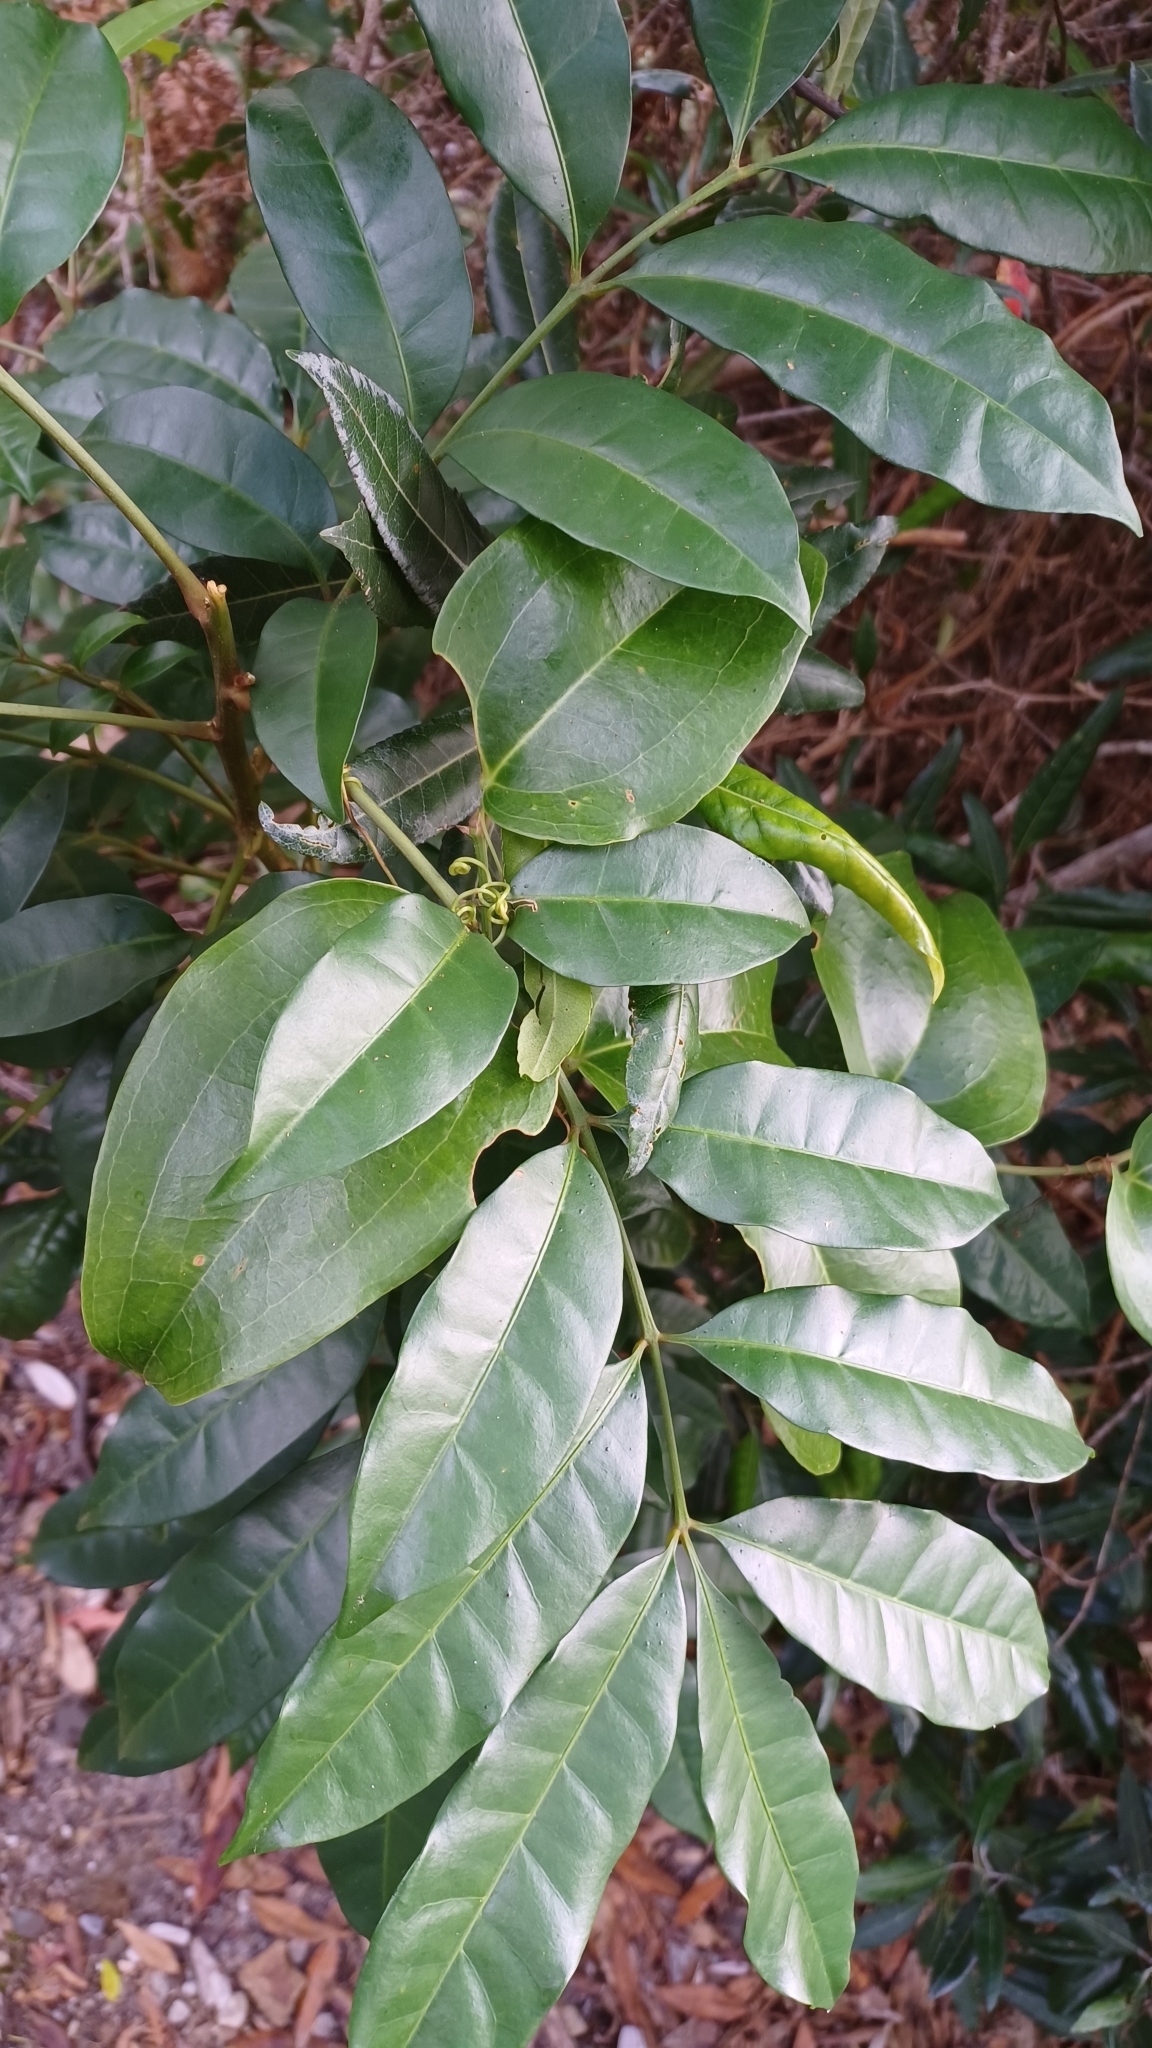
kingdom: Plantae
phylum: Tracheophyta
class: Magnoliopsida
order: Sapindales
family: Meliaceae
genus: Synoum
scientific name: Synoum glandulosum
